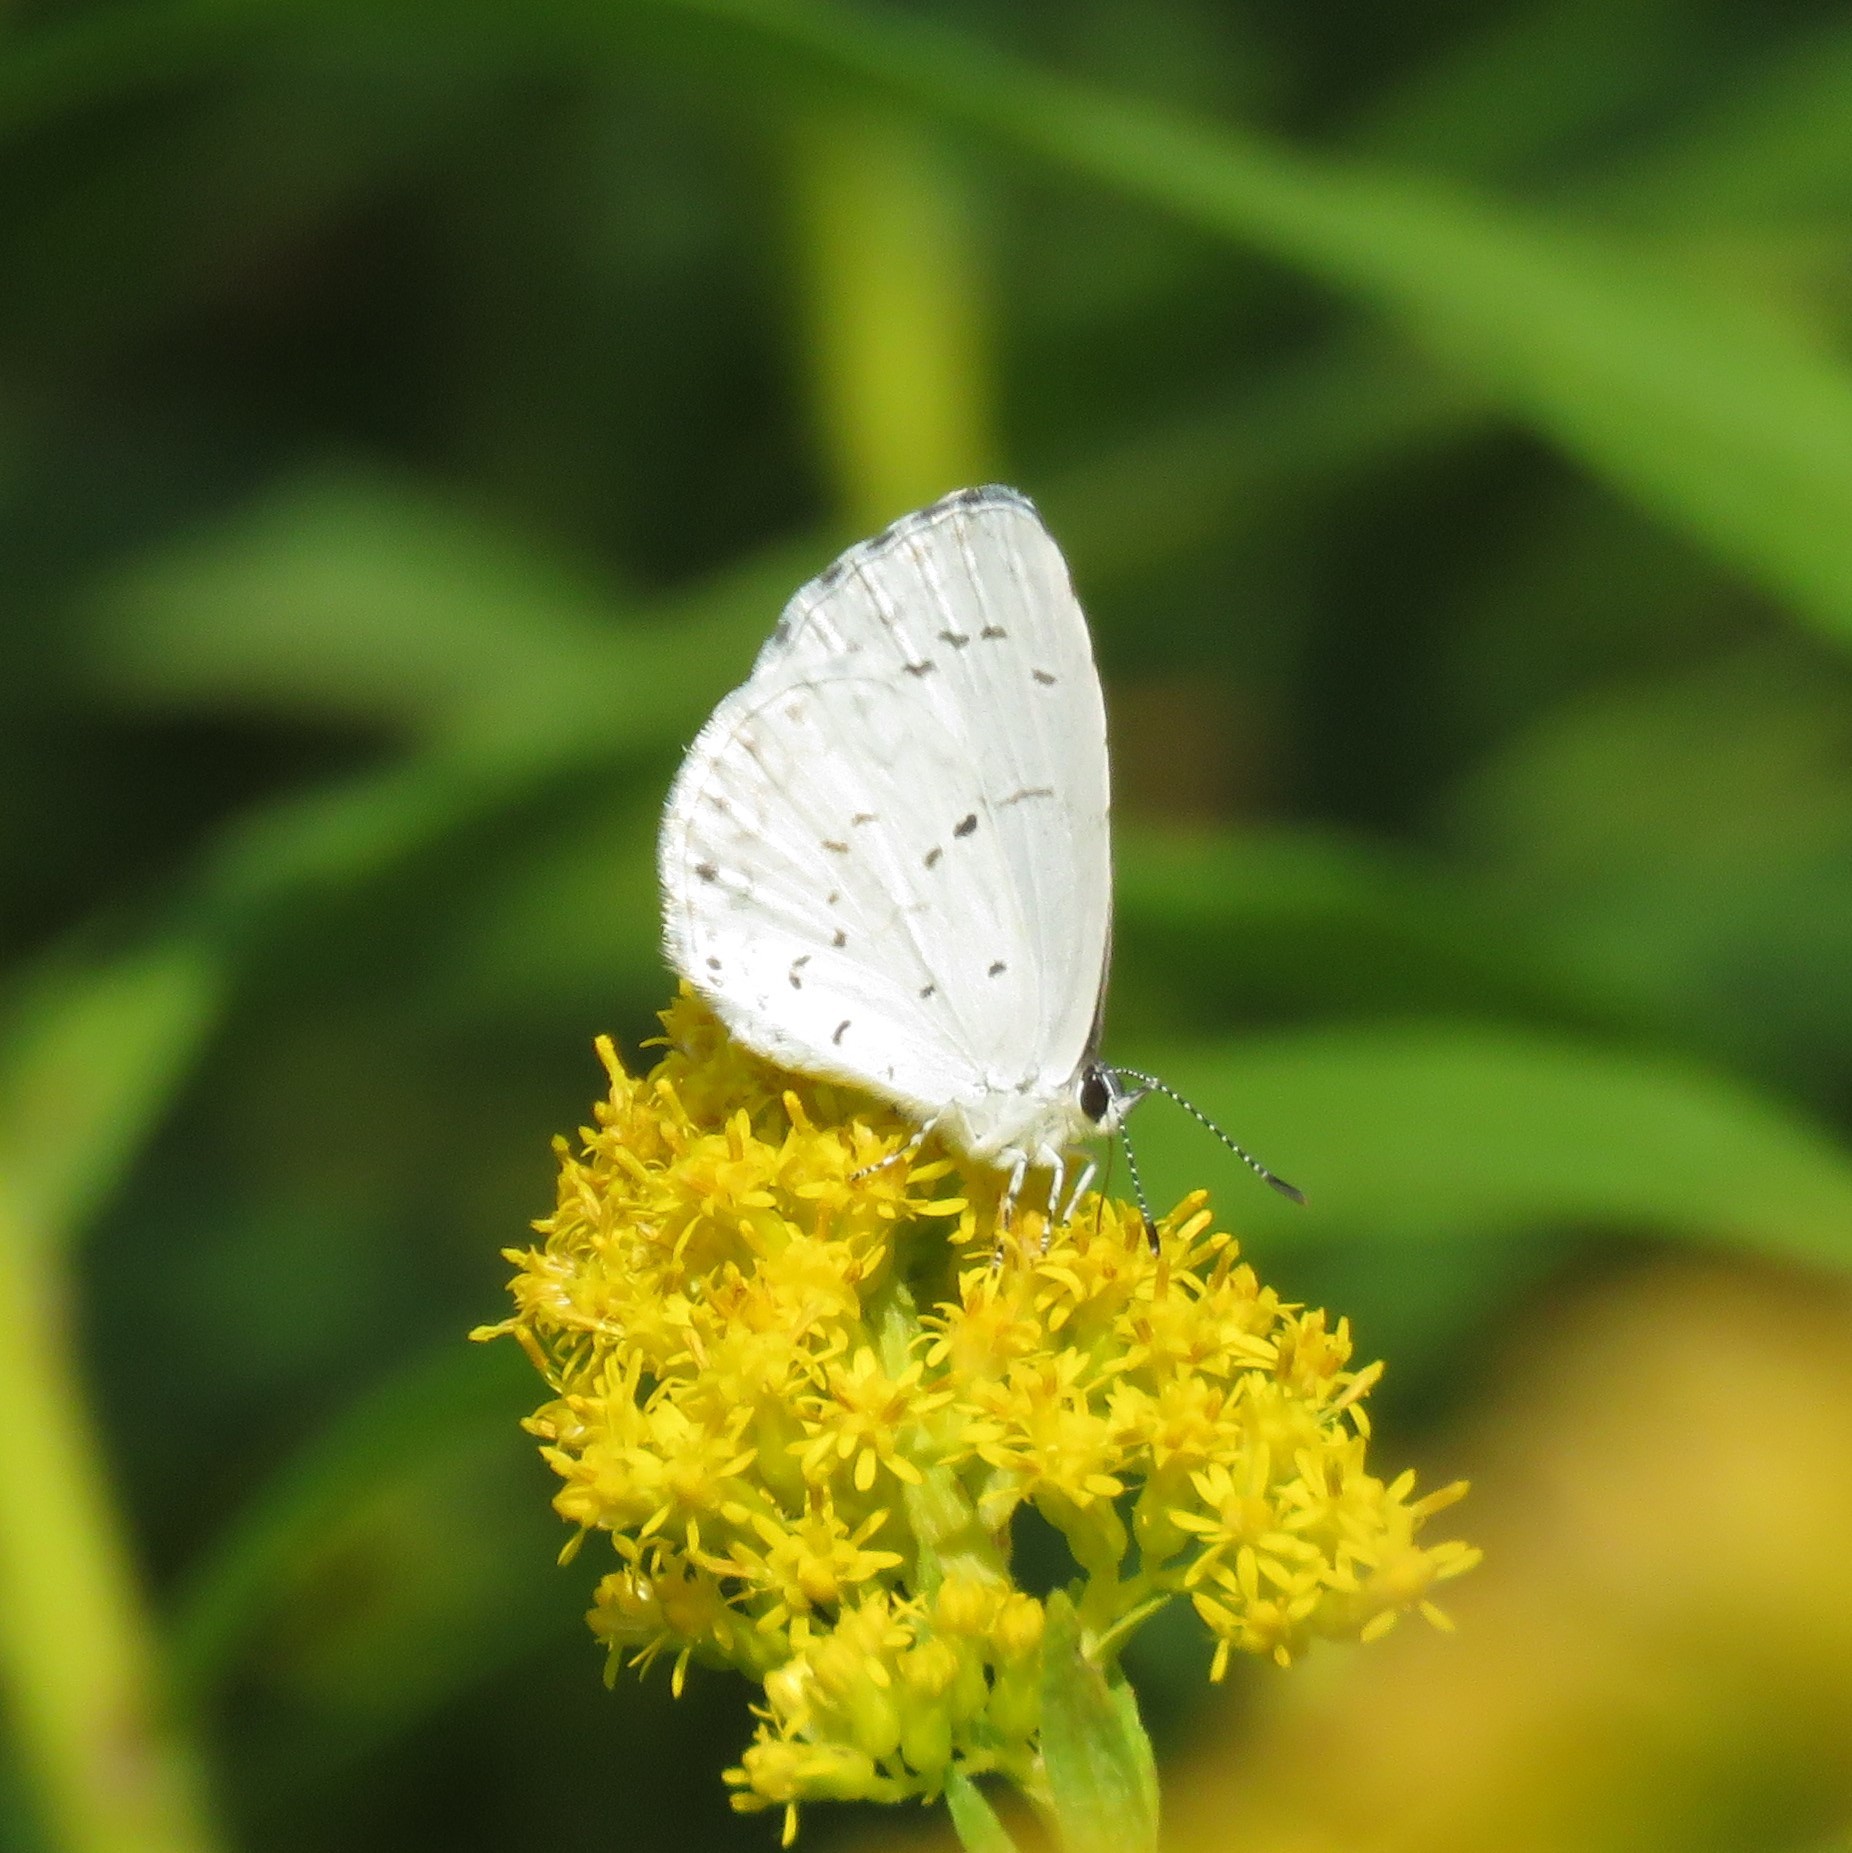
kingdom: Animalia
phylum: Arthropoda
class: Insecta
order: Lepidoptera
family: Lycaenidae
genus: Cyaniris
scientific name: Cyaniris neglecta
